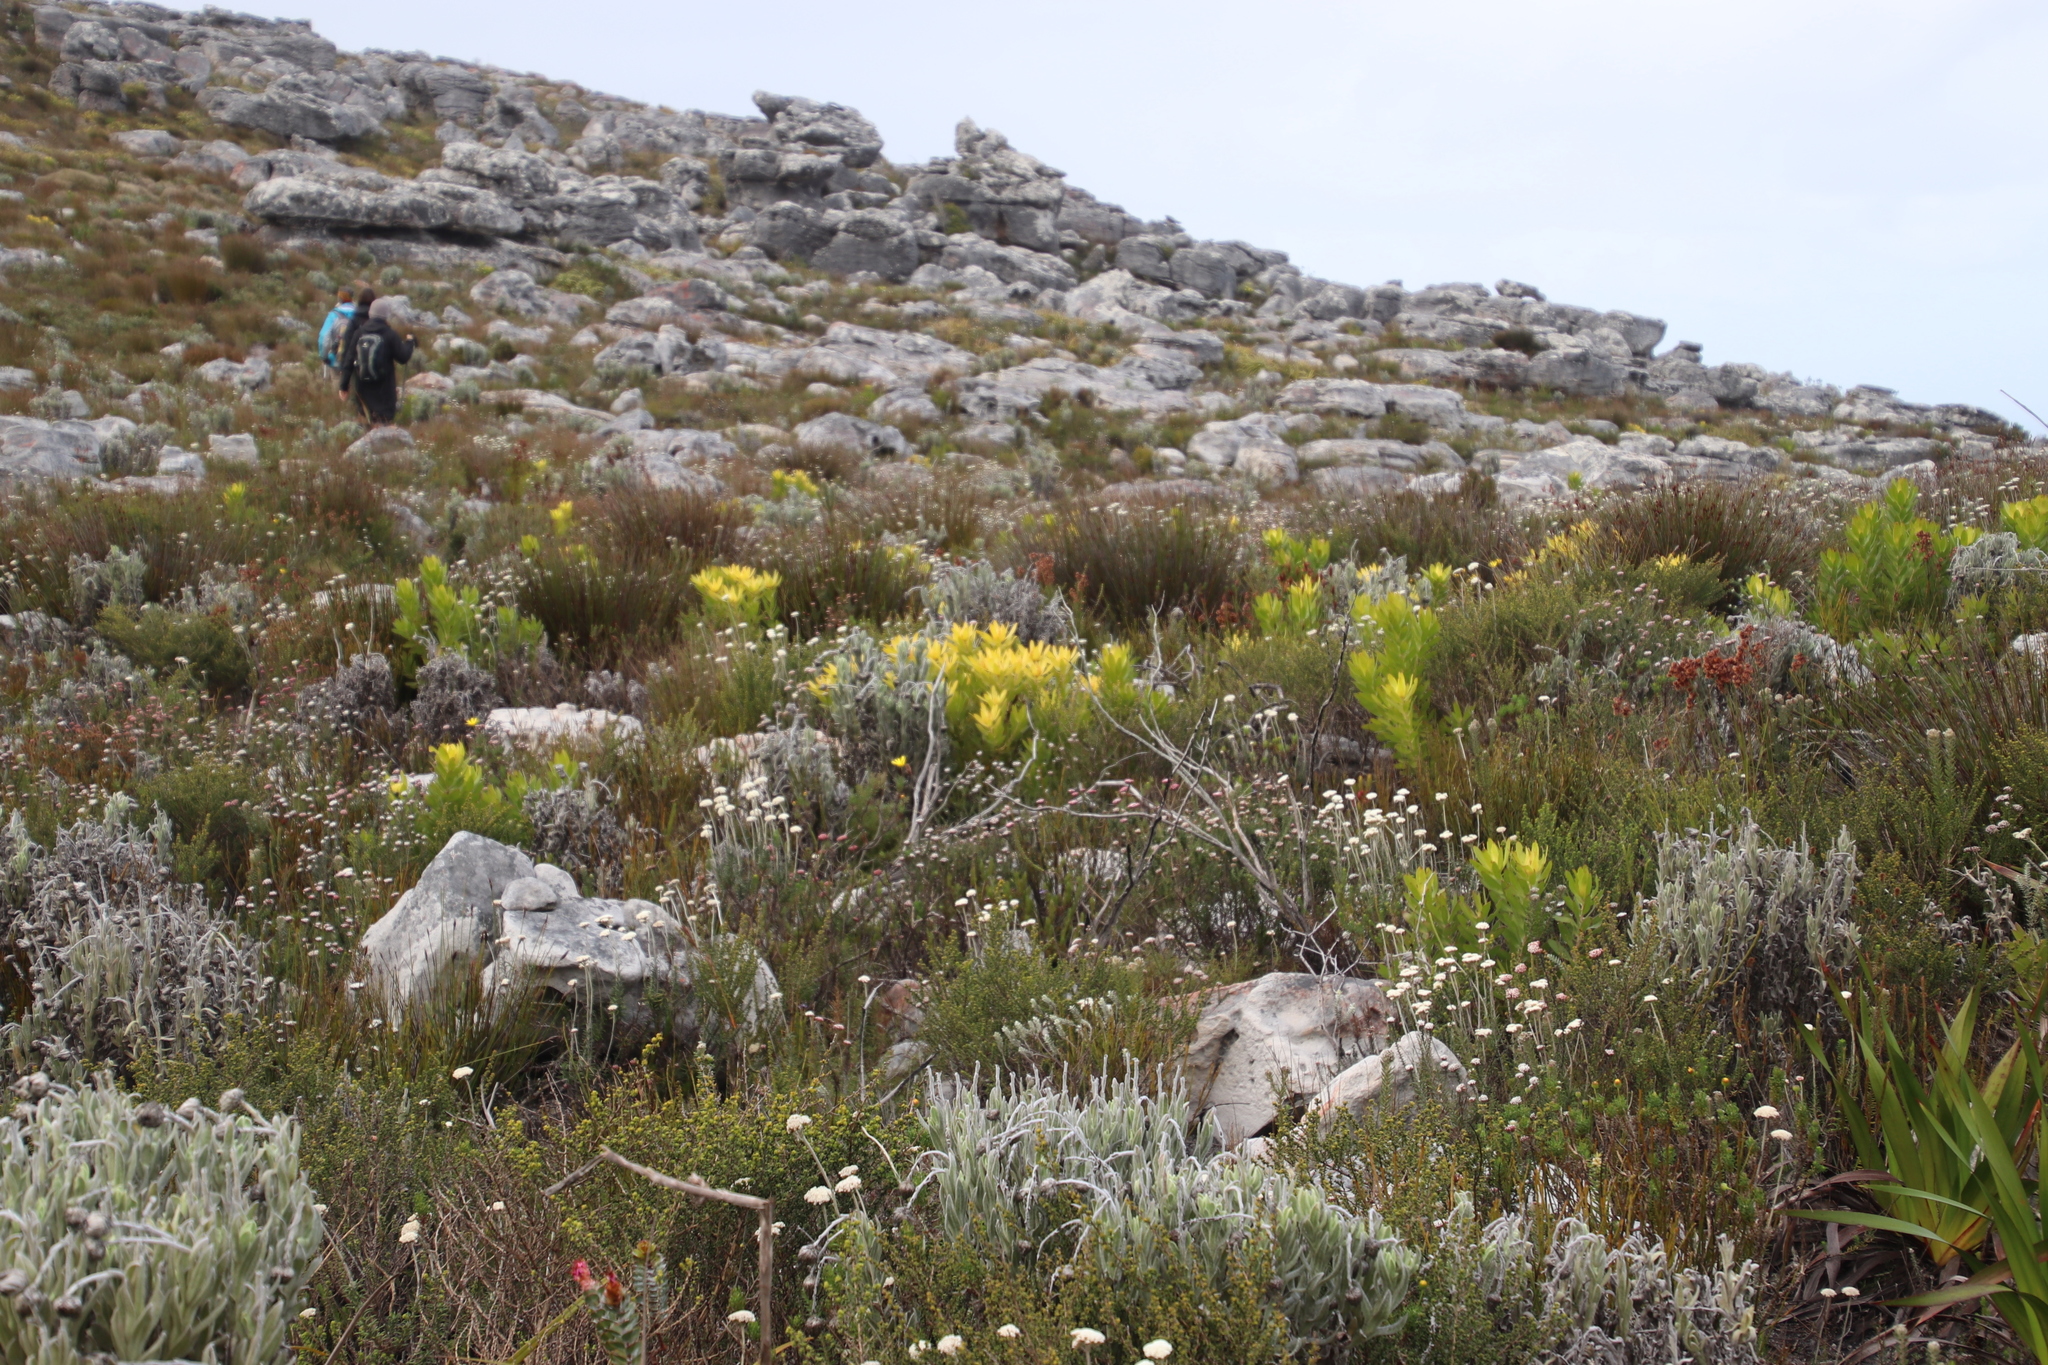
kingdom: Plantae
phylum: Tracheophyta
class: Magnoliopsida
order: Asterales
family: Asteraceae
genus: Anaxeton
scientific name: Anaxeton arborescens
